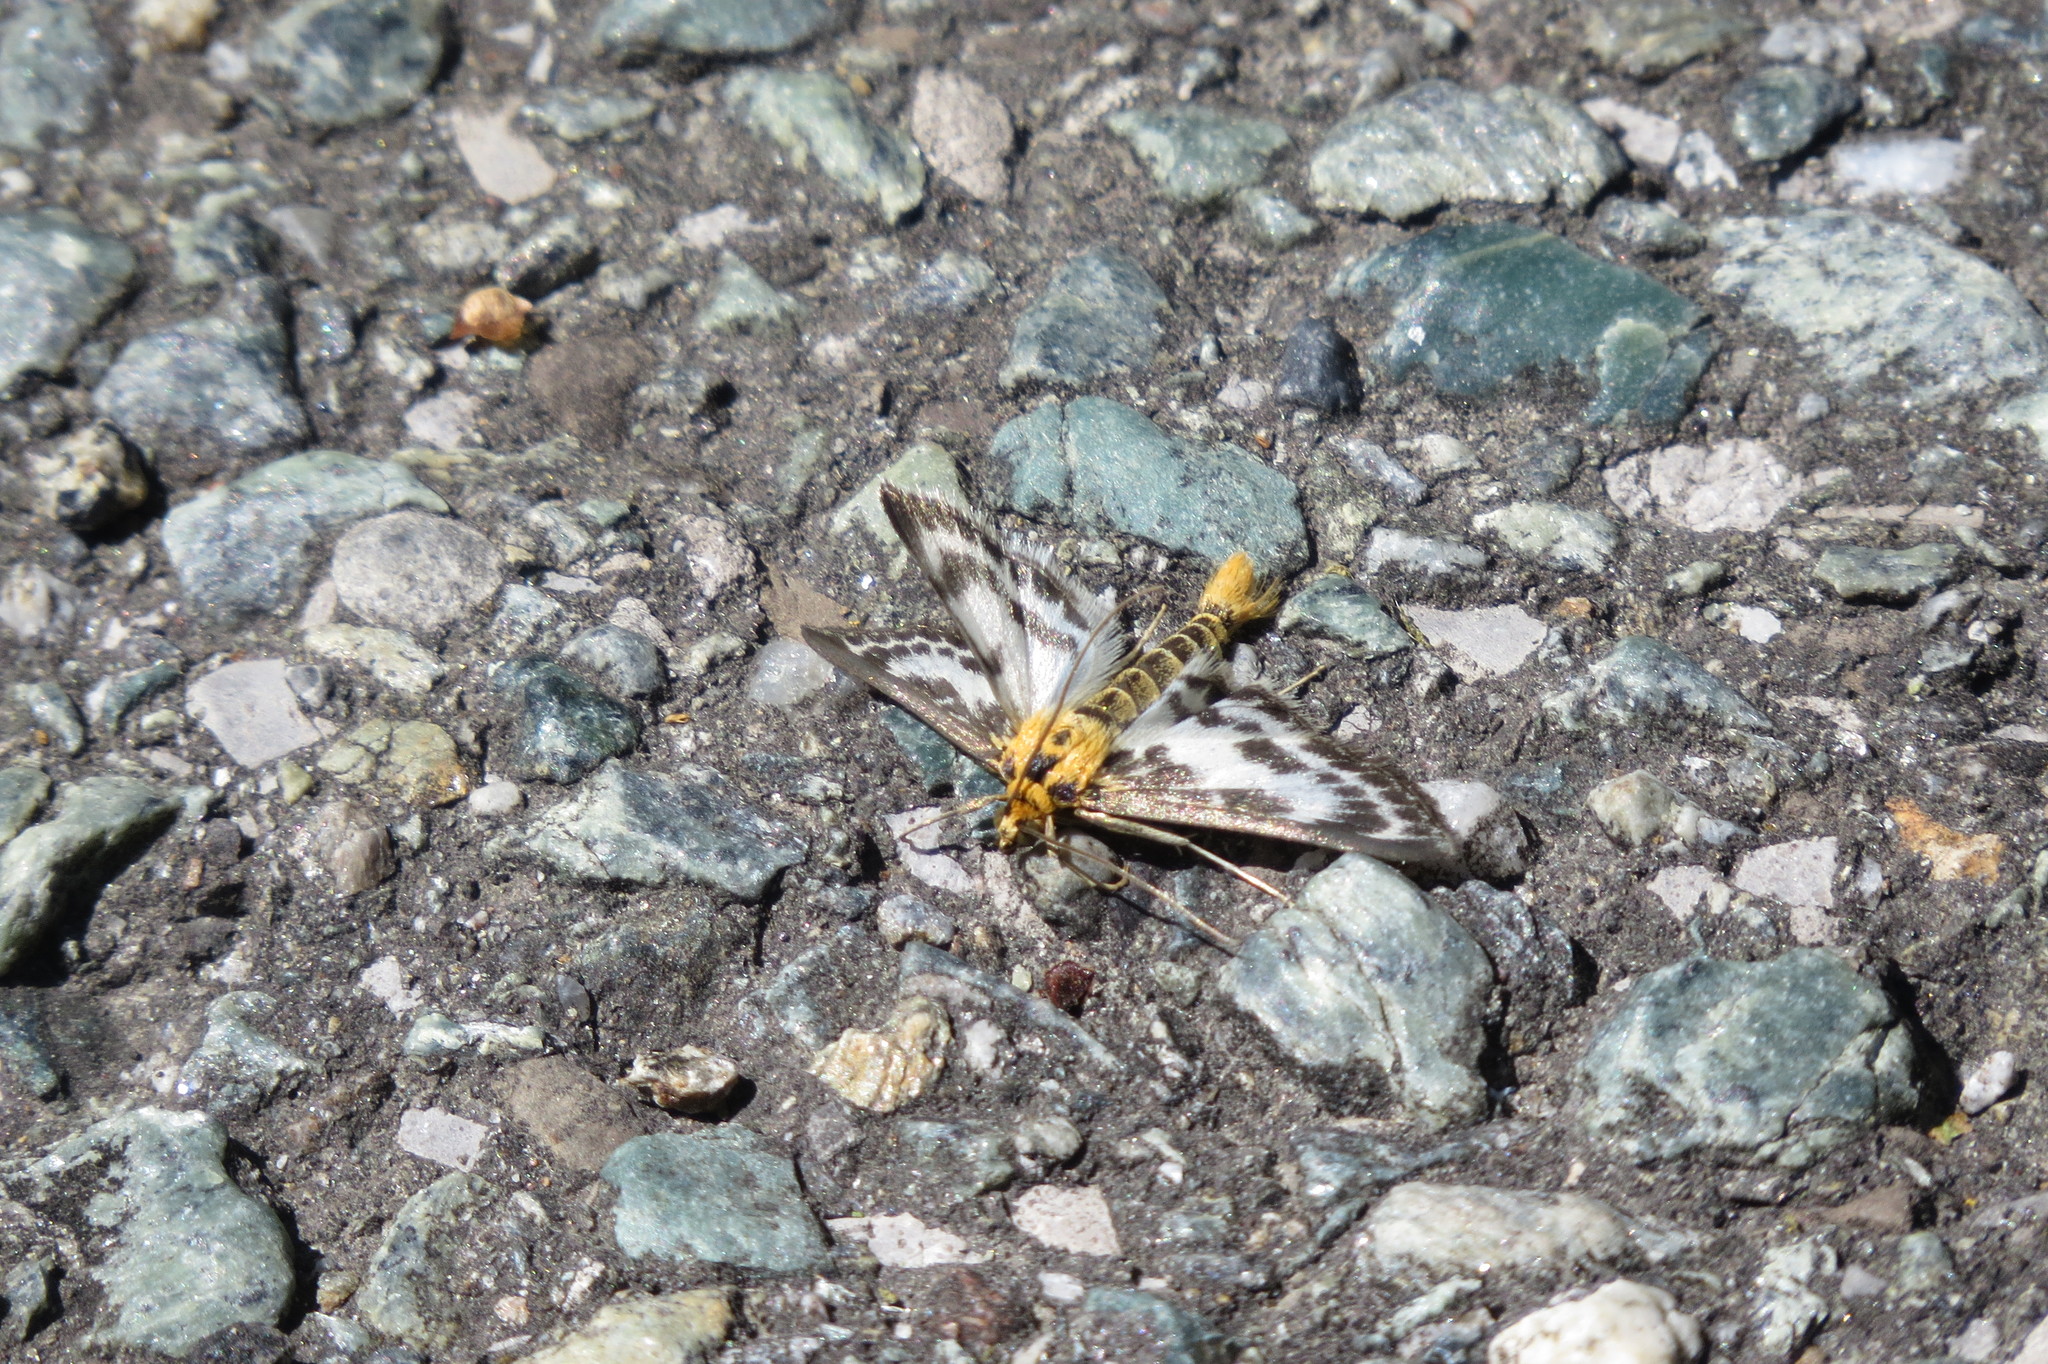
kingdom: Animalia
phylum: Arthropoda
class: Insecta
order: Lepidoptera
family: Crambidae
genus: Anania
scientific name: Anania hortulata
